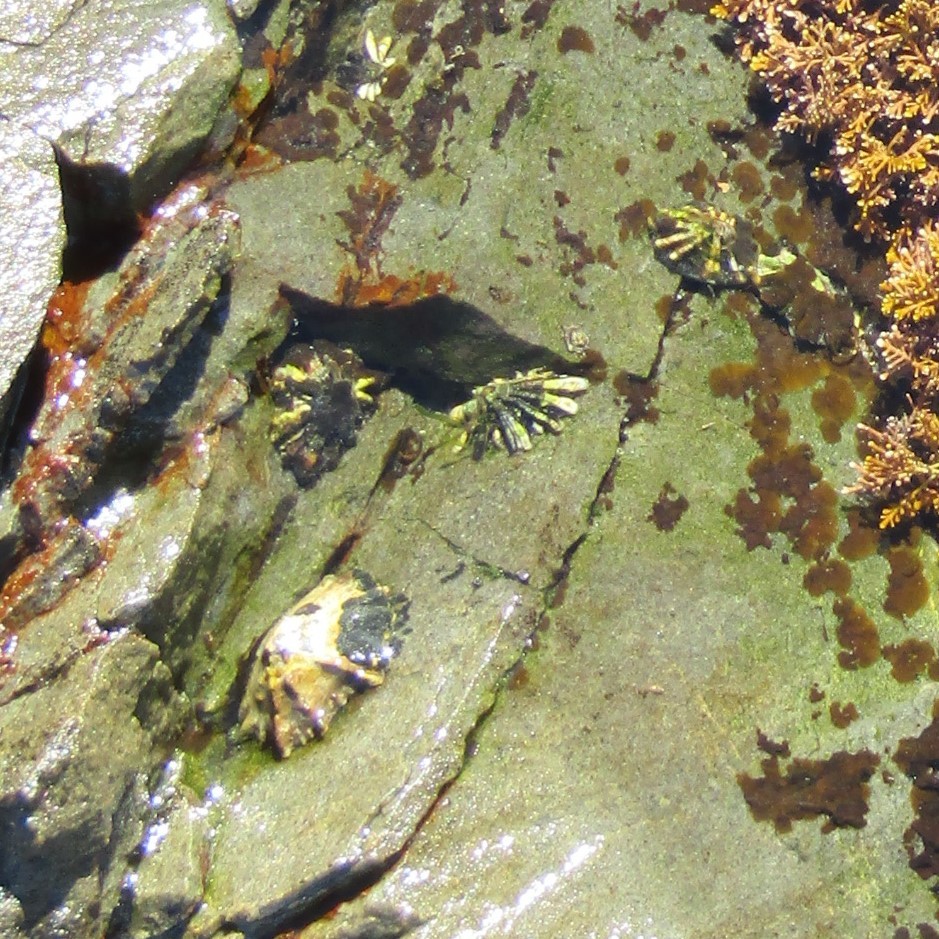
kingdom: Animalia
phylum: Mollusca
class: Gastropoda
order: Siphonariida
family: Siphonariidae
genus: Siphonaria
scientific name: Siphonaria australis
